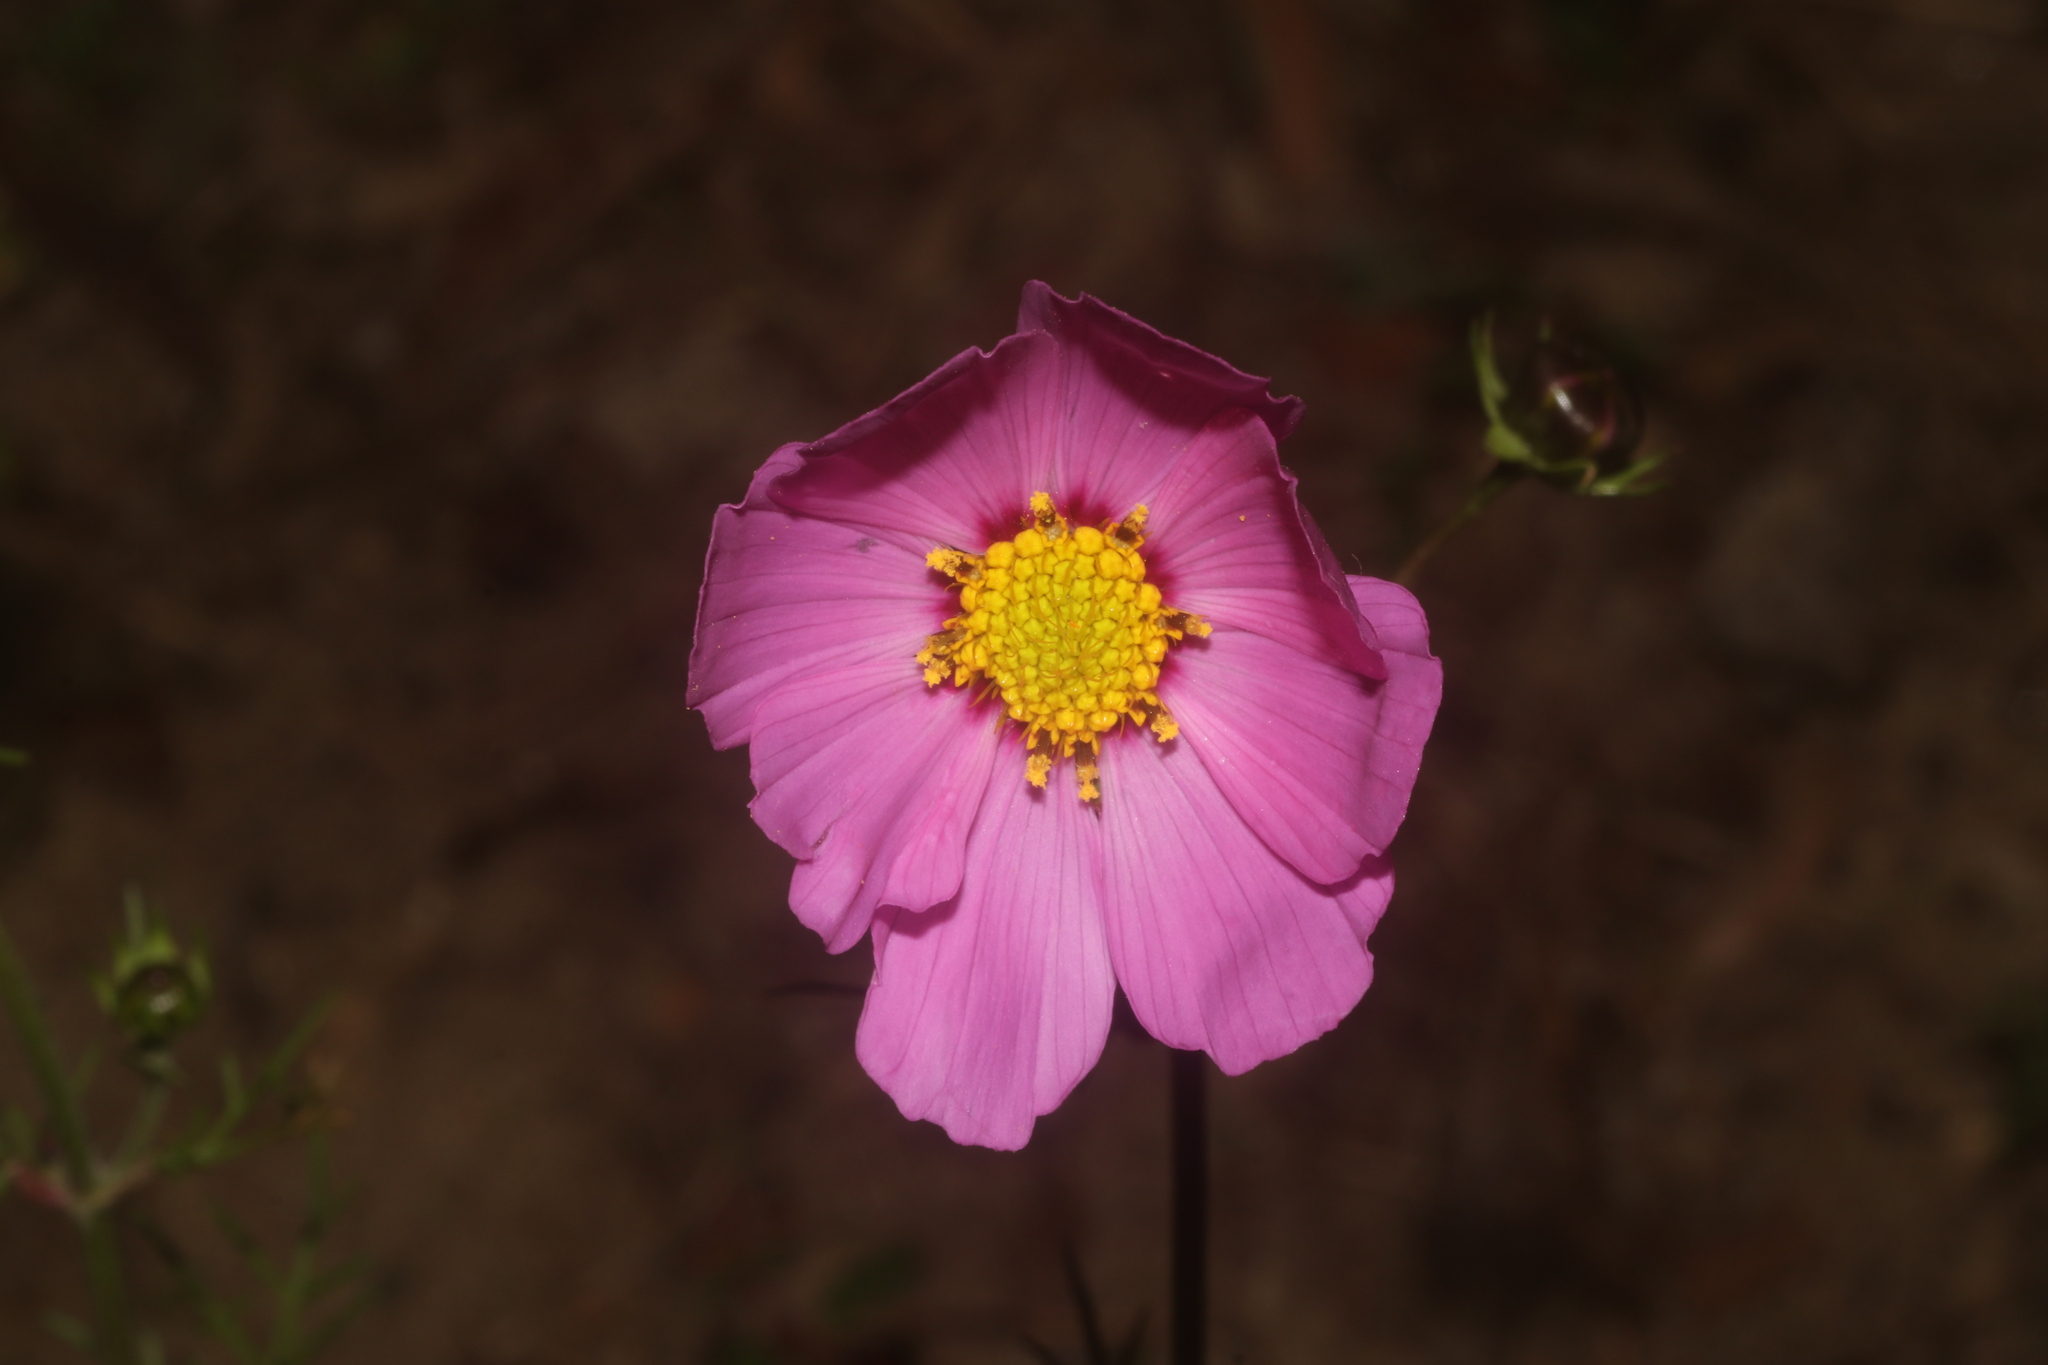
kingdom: Plantae
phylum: Tracheophyta
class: Magnoliopsida
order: Asterales
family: Asteraceae
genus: Cosmos
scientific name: Cosmos bipinnatus
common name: Garden cosmos
